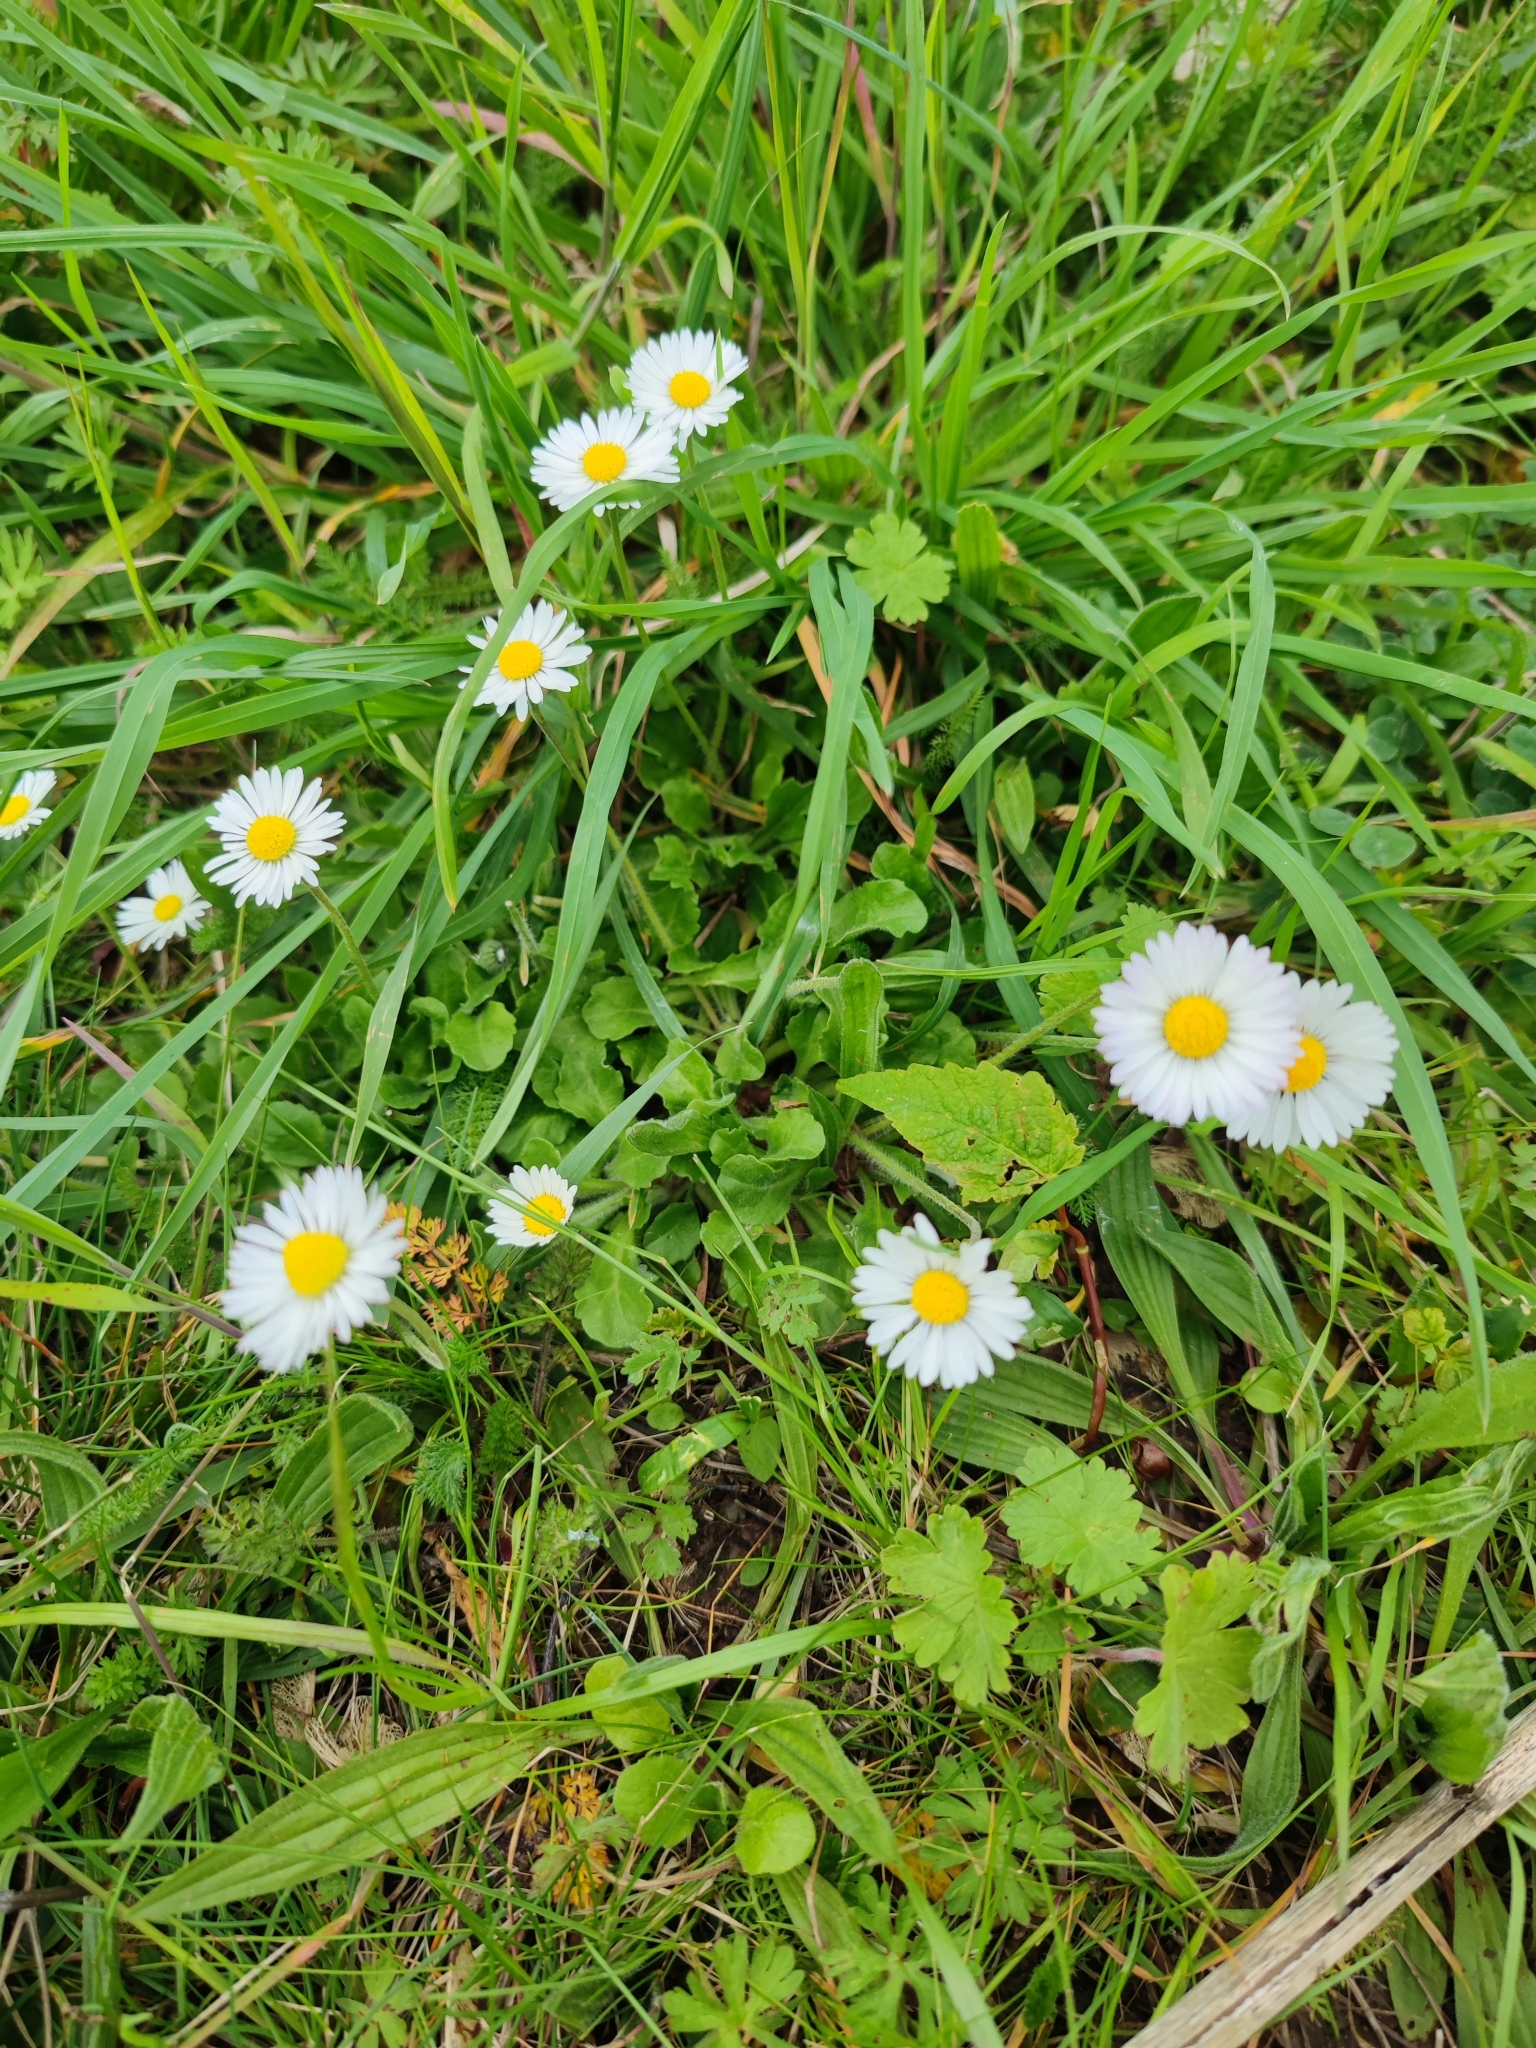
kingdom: Plantae
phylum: Tracheophyta
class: Magnoliopsida
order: Asterales
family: Asteraceae
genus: Bellis
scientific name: Bellis perennis
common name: Lawndaisy
